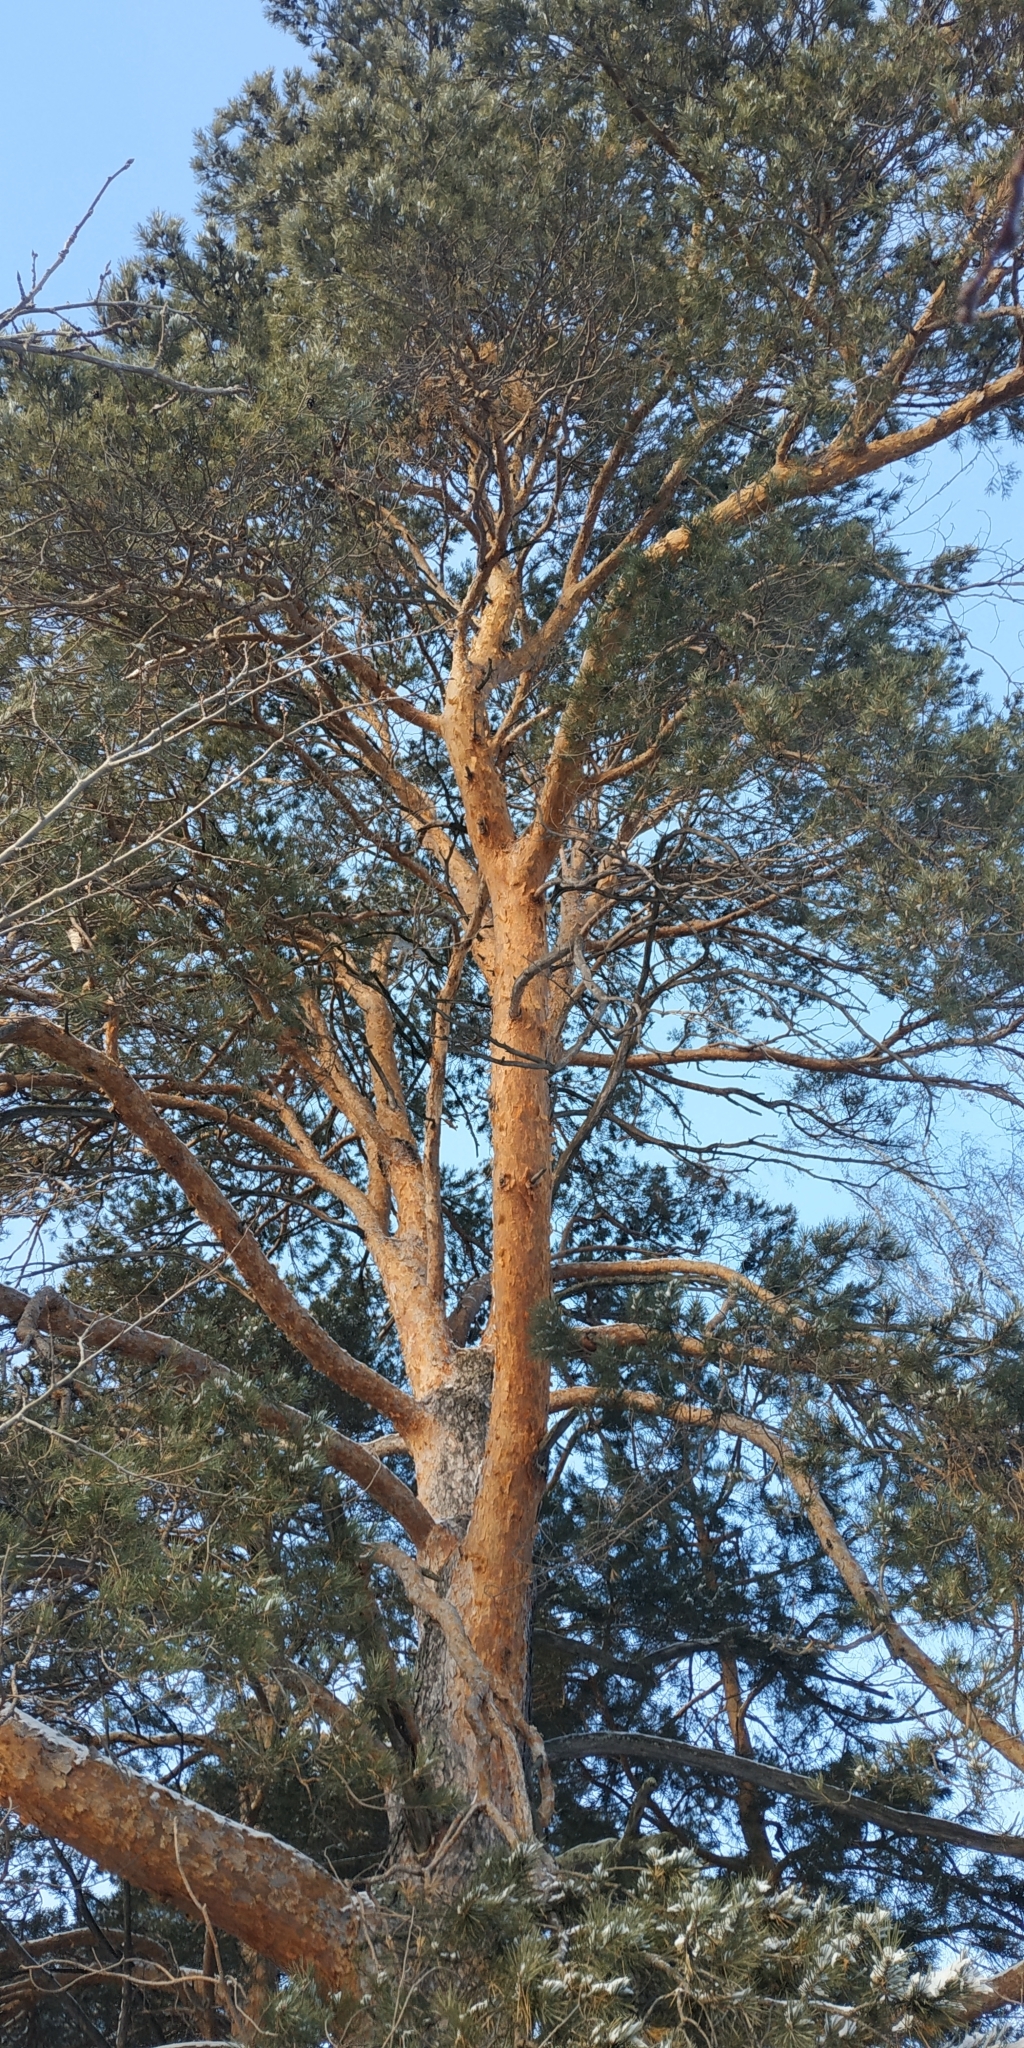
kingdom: Plantae
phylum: Tracheophyta
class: Pinopsida
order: Pinales
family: Pinaceae
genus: Pinus
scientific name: Pinus sylvestris
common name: Scots pine
